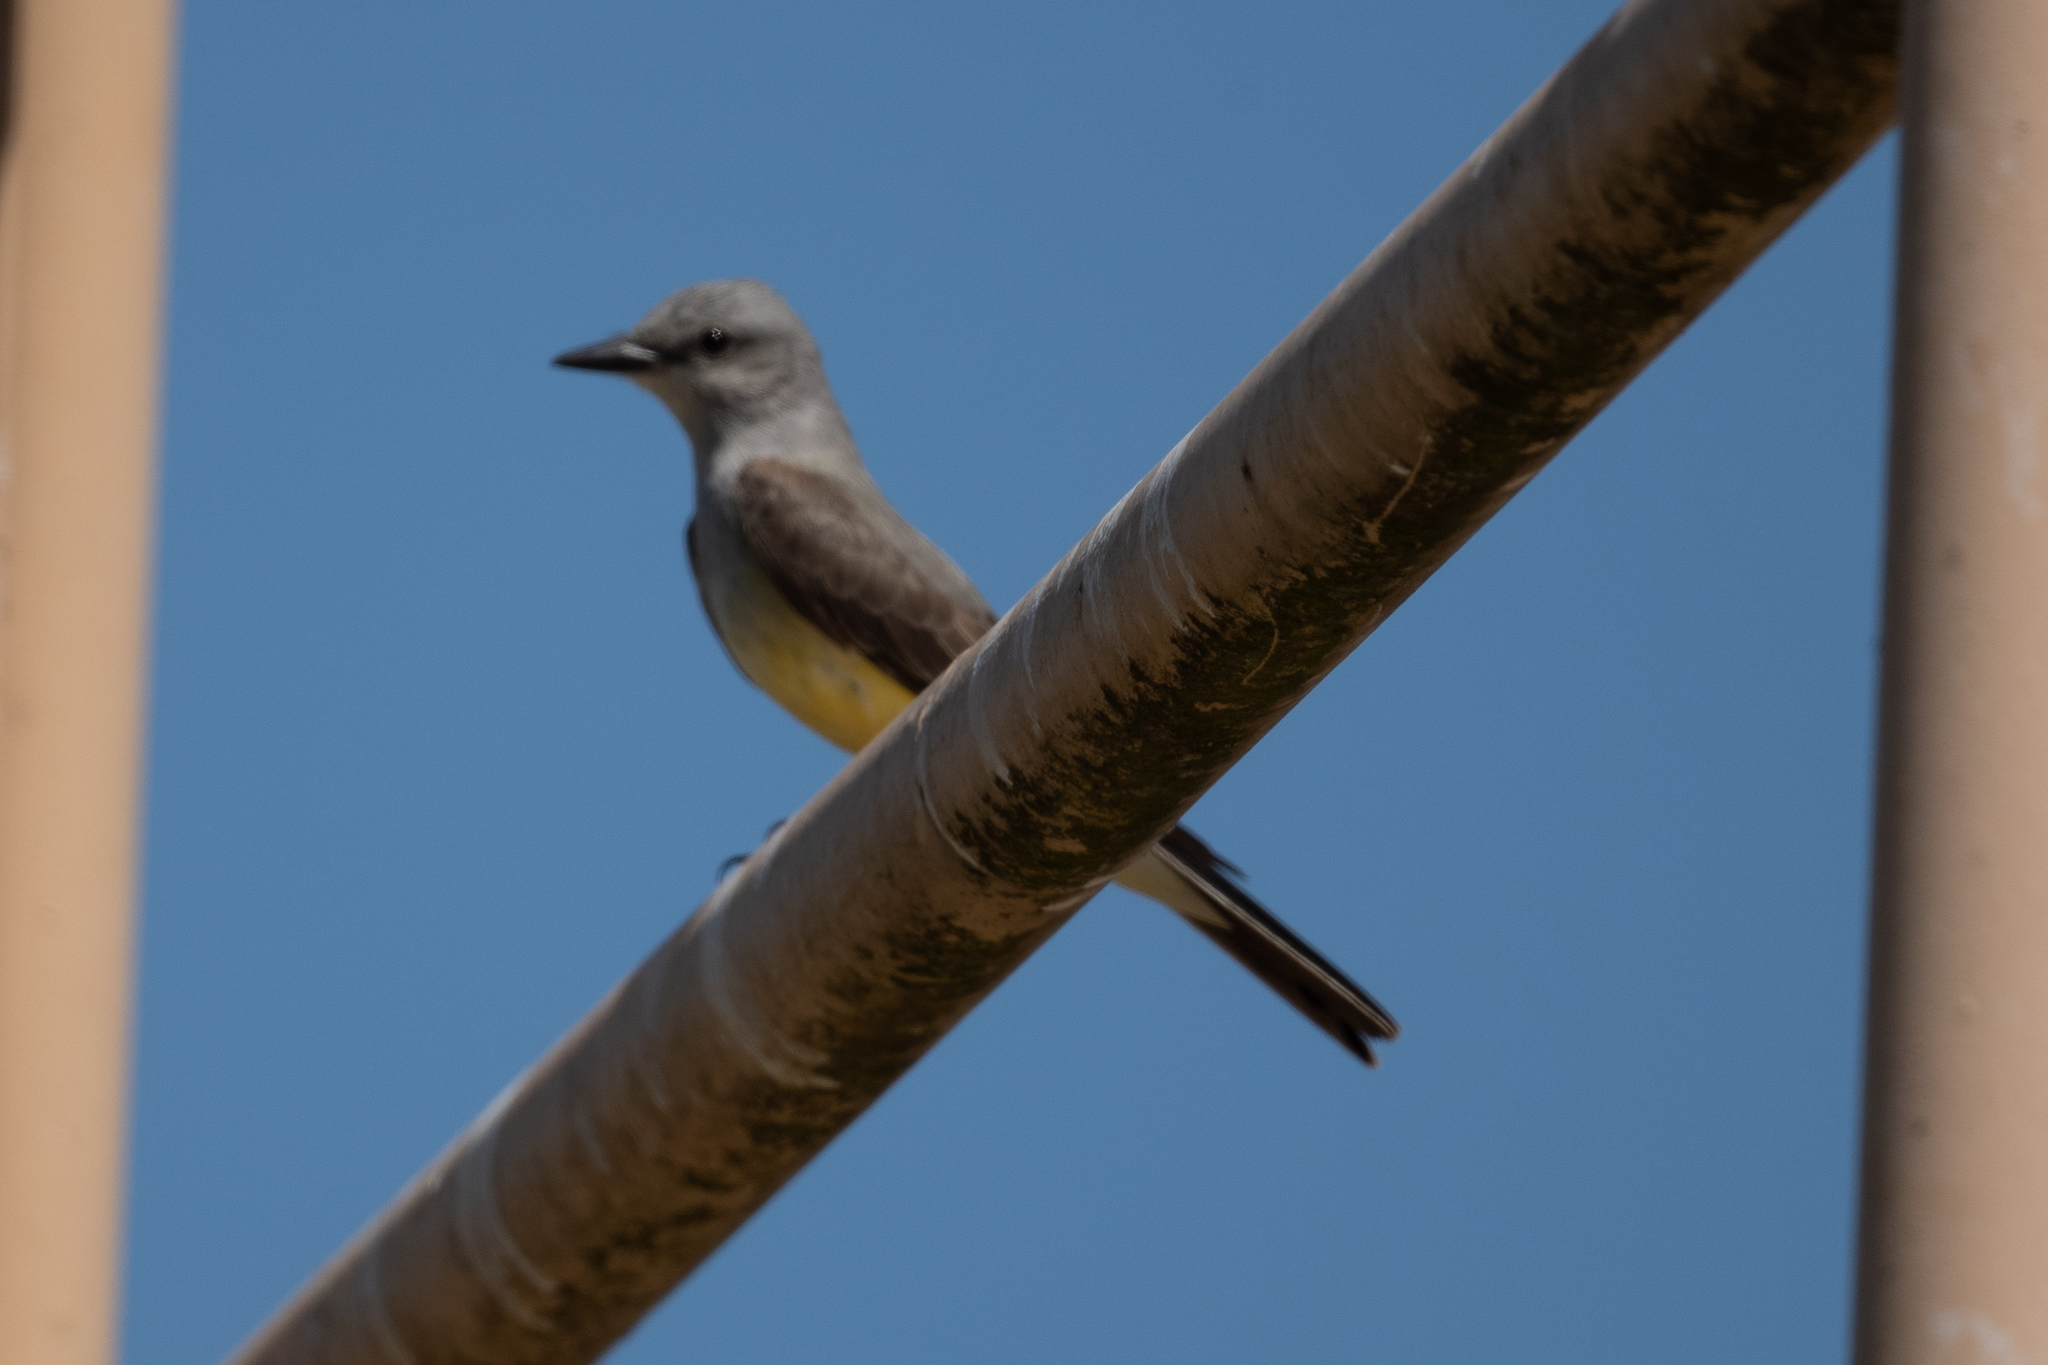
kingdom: Animalia
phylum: Chordata
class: Aves
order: Passeriformes
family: Tyrannidae
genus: Tyrannus
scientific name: Tyrannus verticalis
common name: Western kingbird
